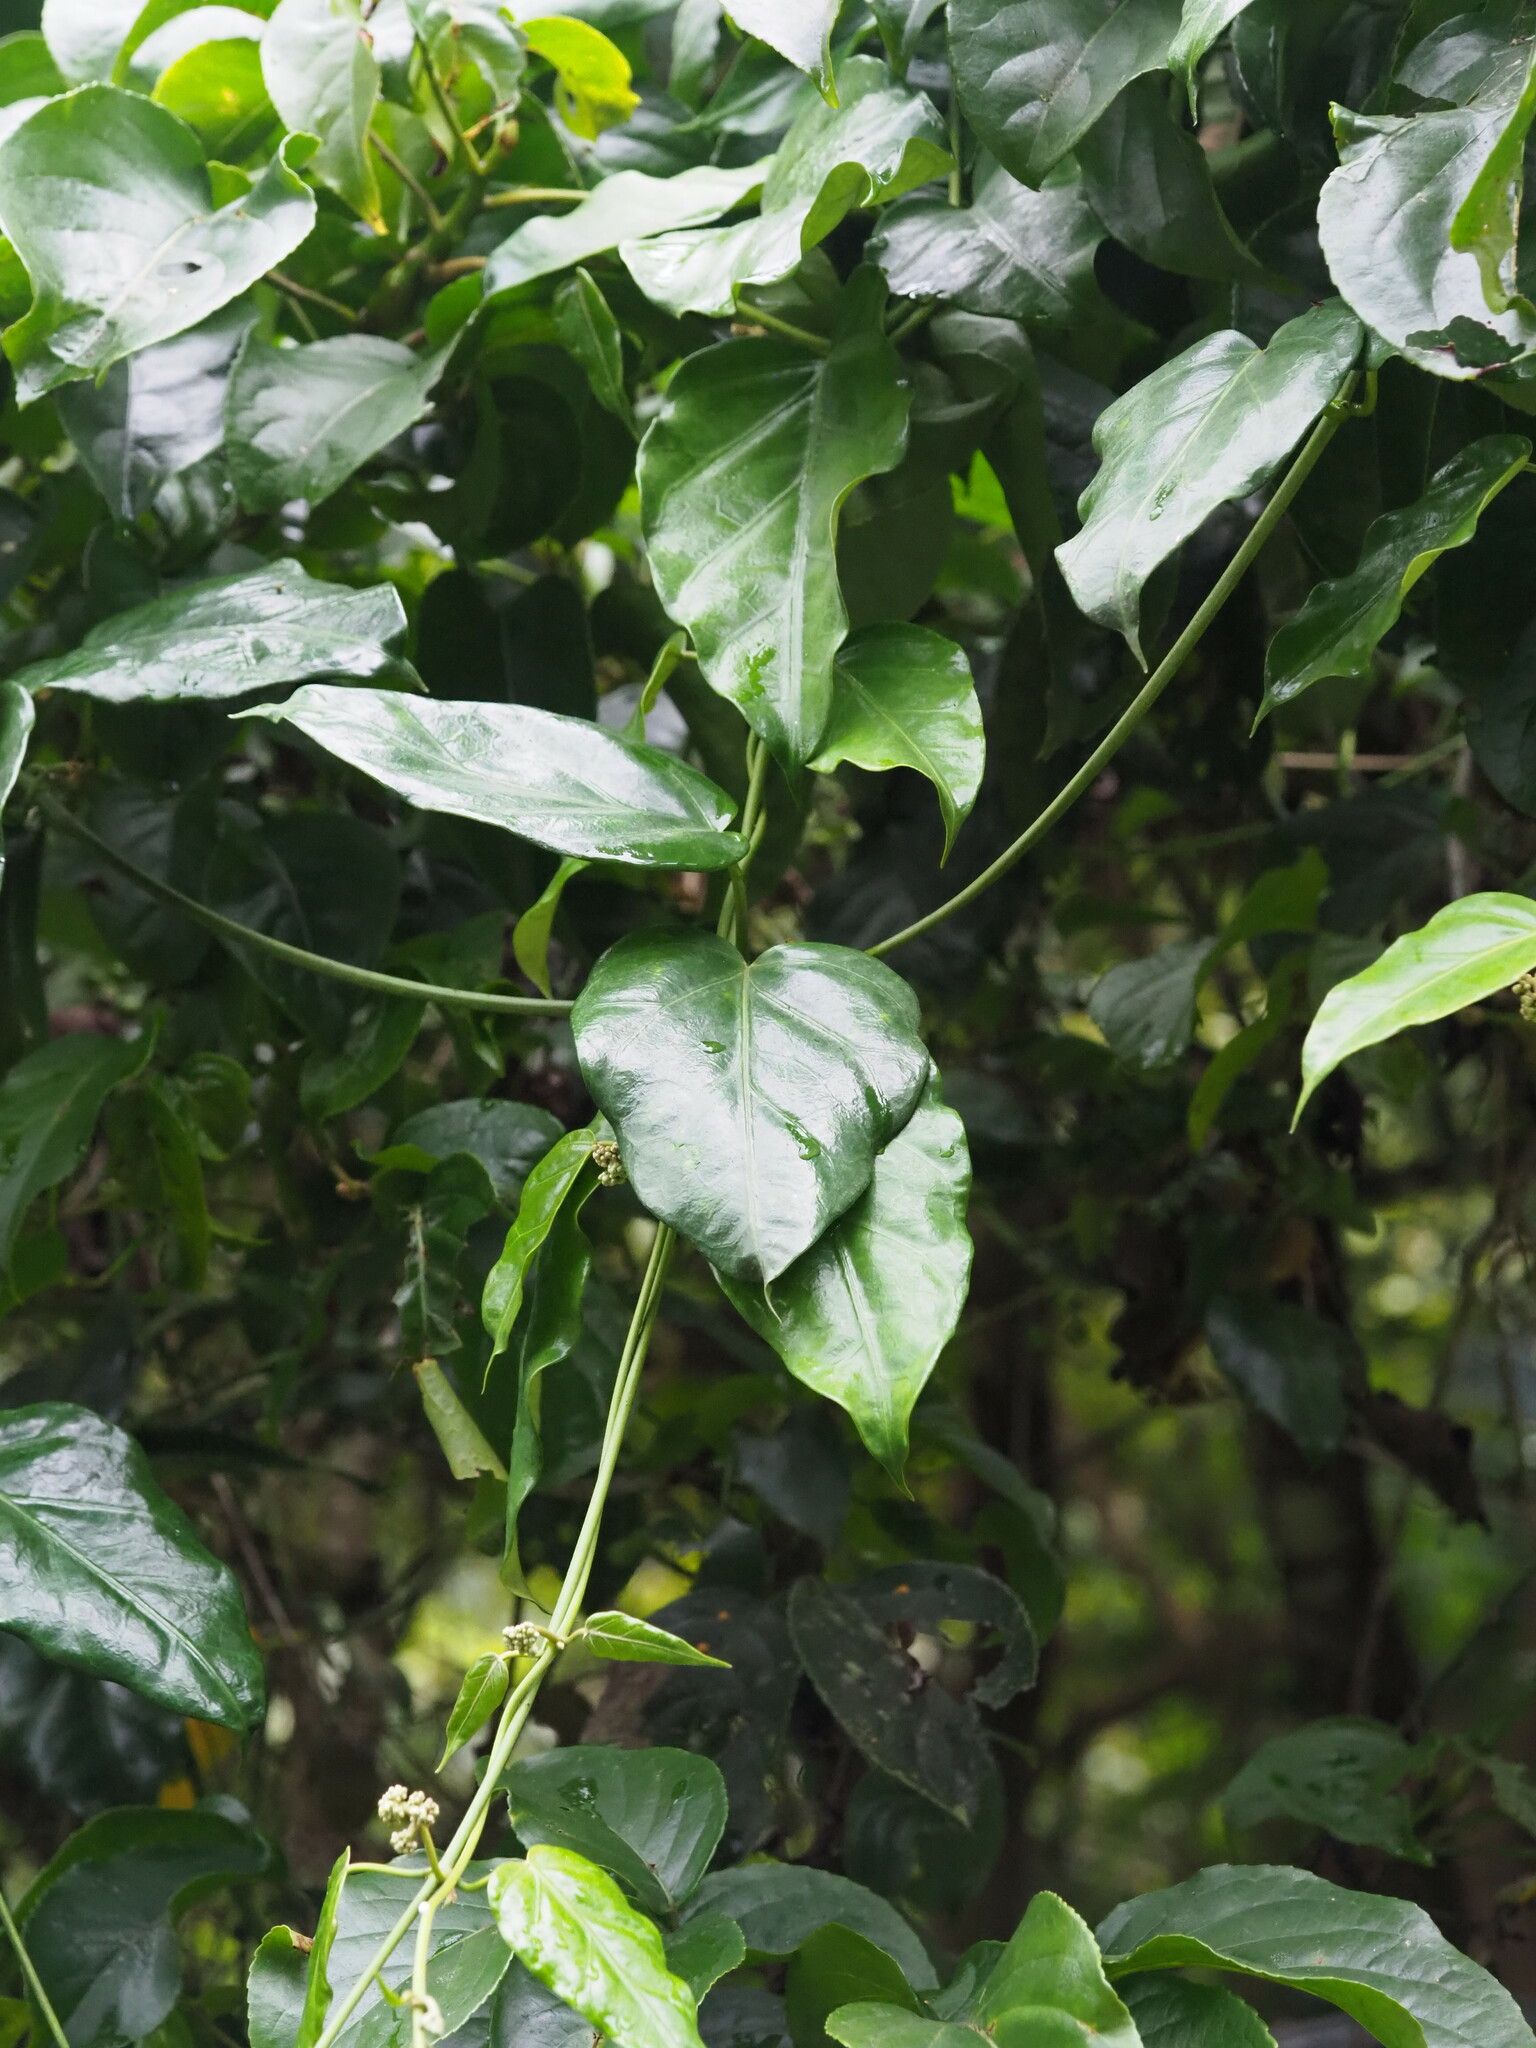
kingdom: Plantae
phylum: Tracheophyta
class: Magnoliopsida
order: Gentianales
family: Apocynaceae
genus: Sinomarsdenia
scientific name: Sinomarsdenia formosana
